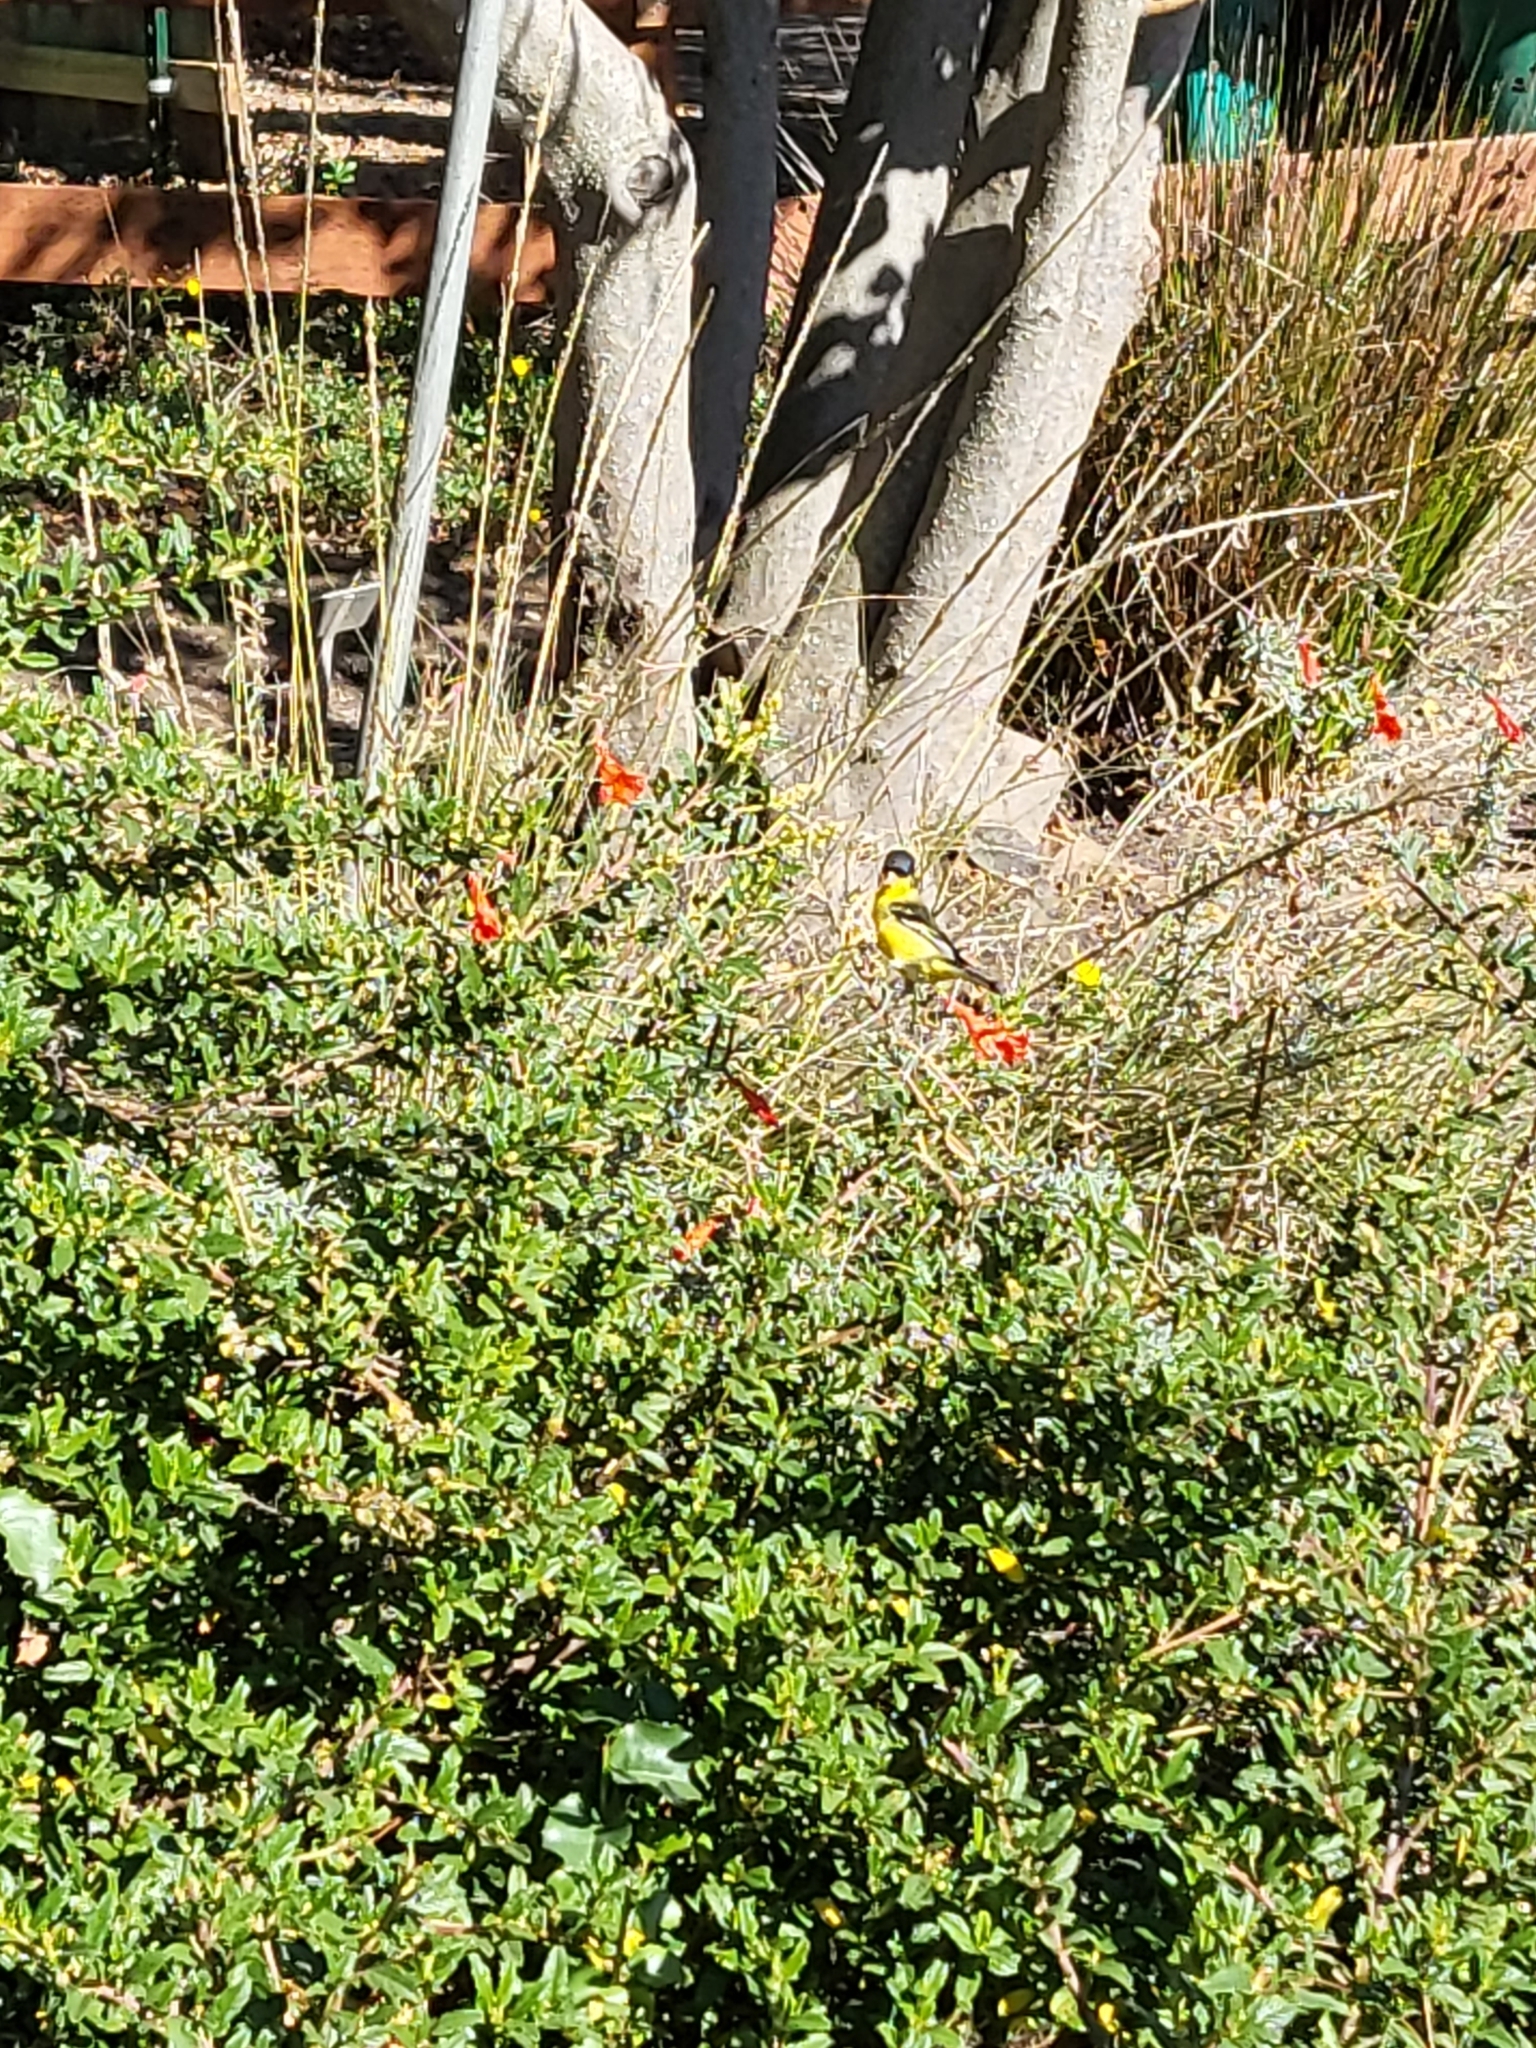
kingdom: Animalia
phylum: Chordata
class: Aves
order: Passeriformes
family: Fringillidae
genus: Spinus
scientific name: Spinus psaltria
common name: Lesser goldfinch
